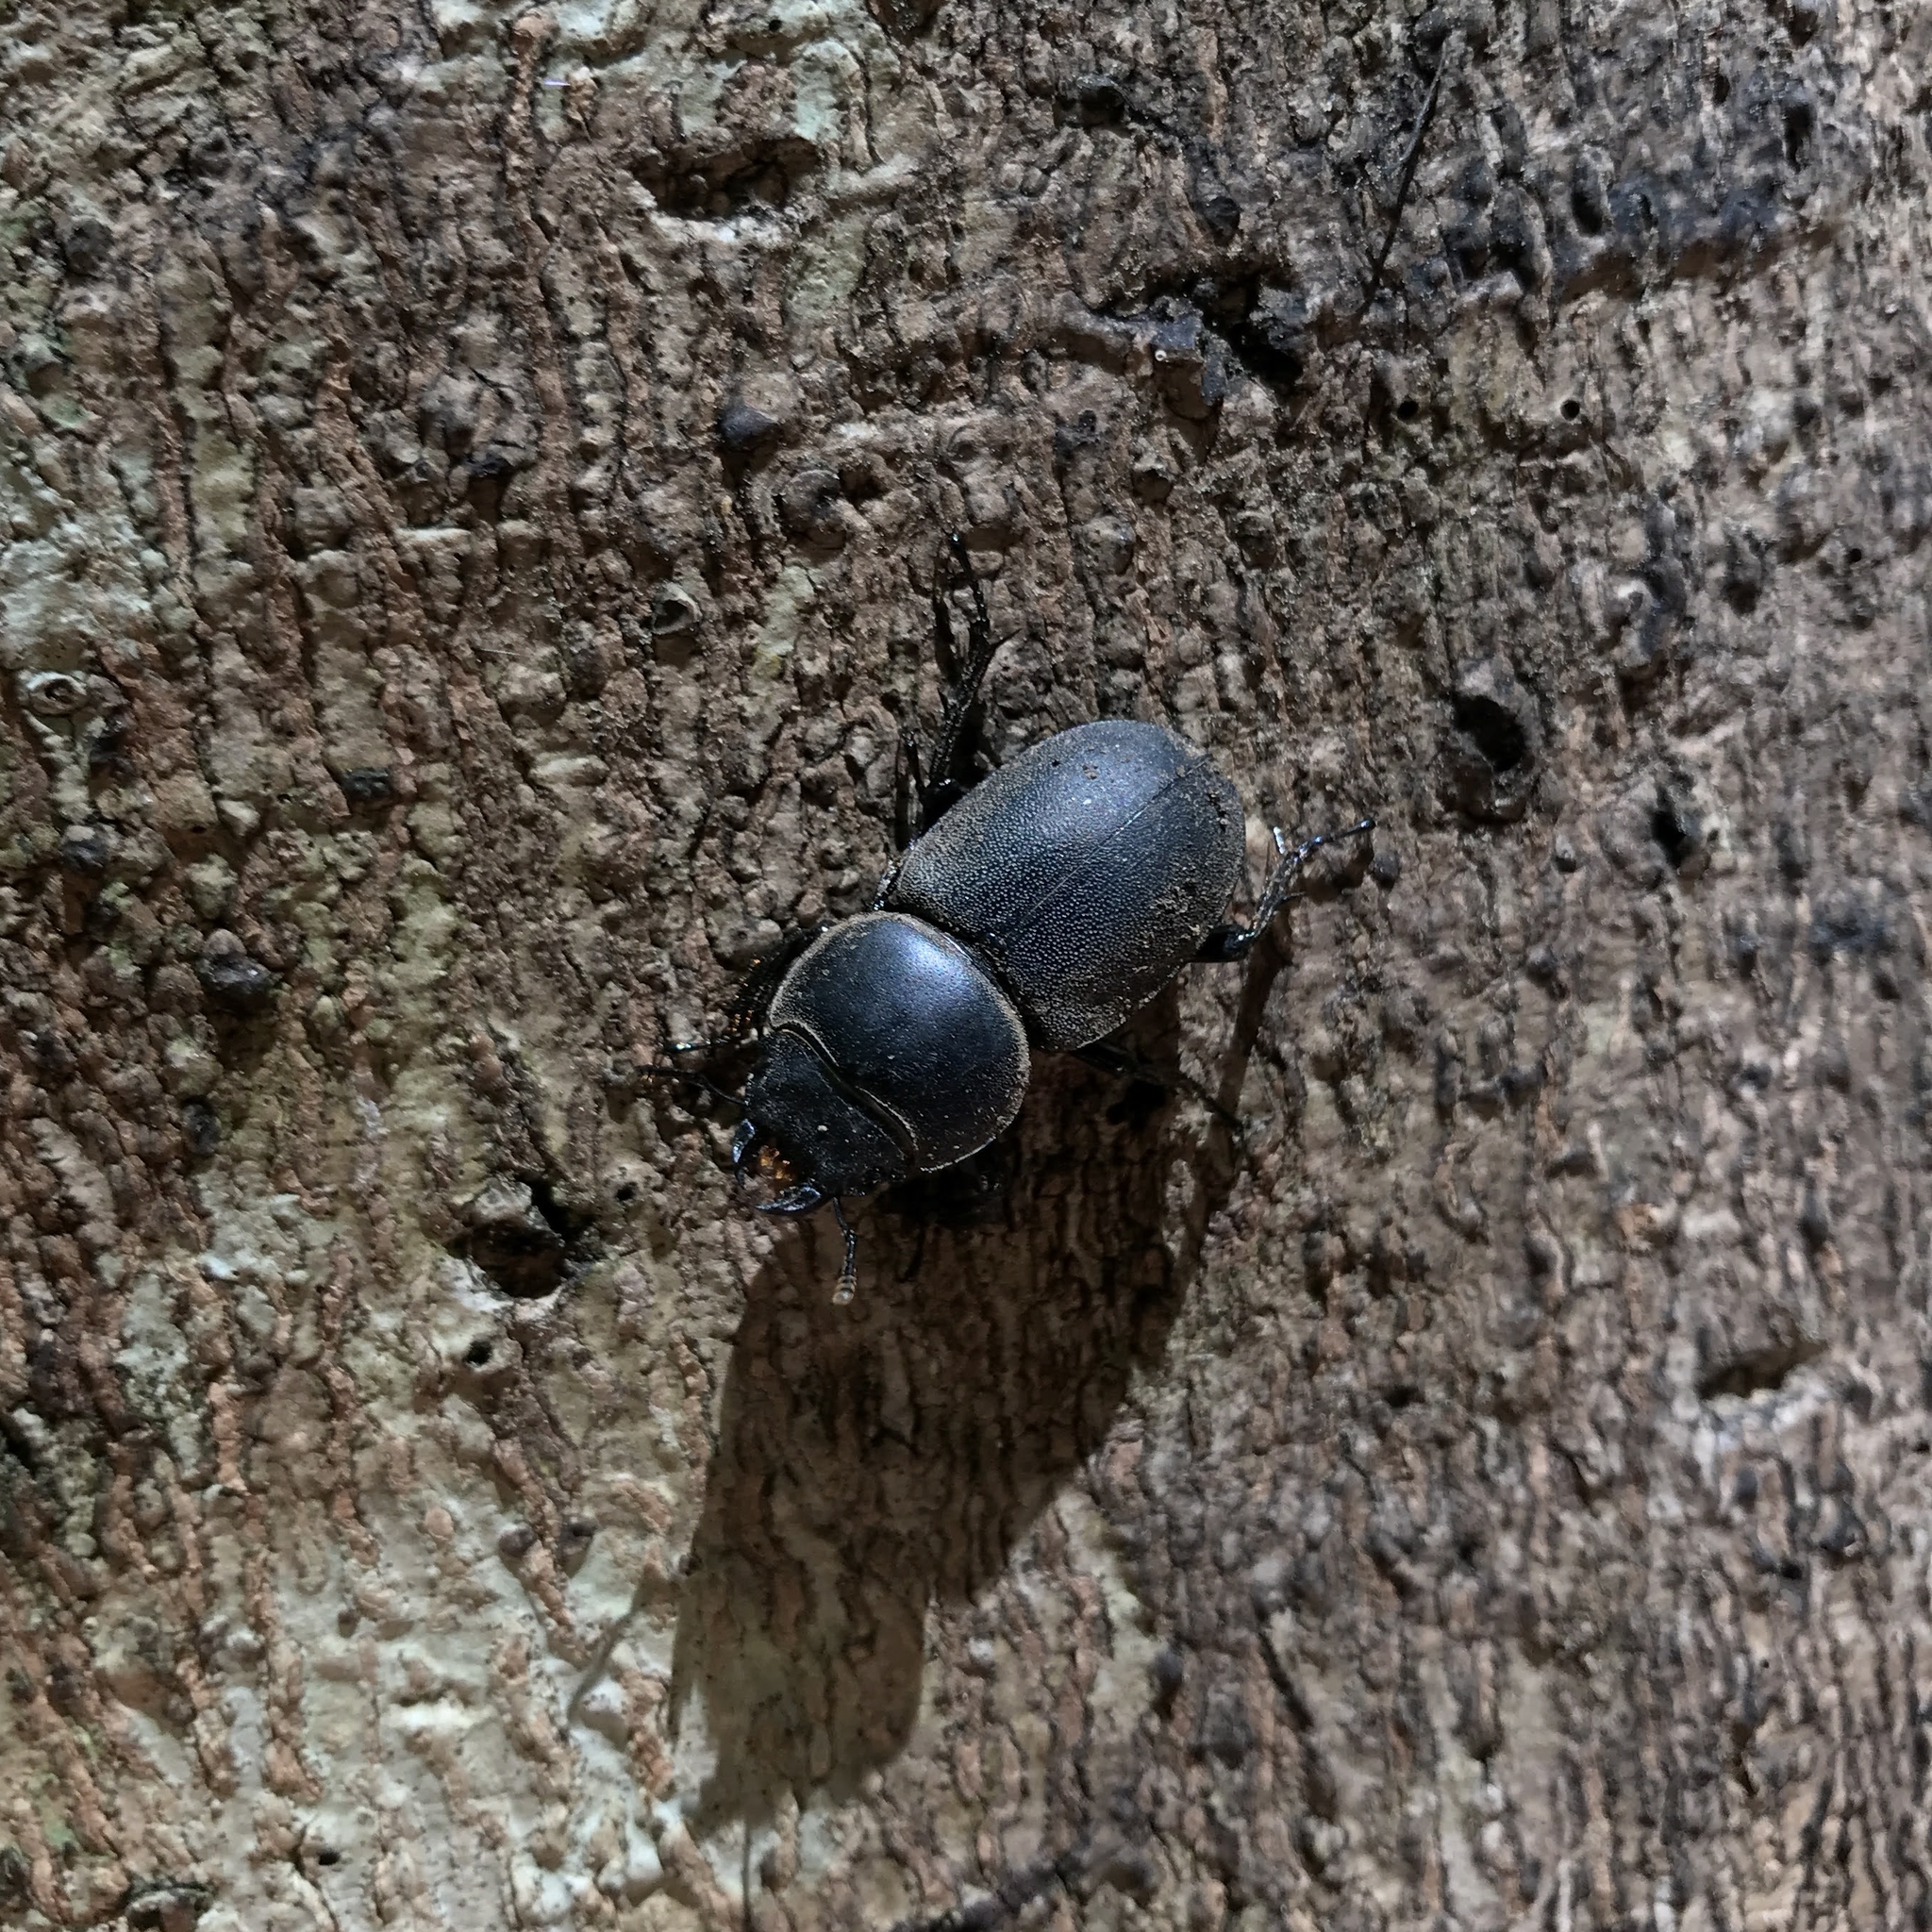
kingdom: Animalia
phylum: Arthropoda
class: Insecta
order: Coleoptera
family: Lucanidae
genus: Apterodorcus
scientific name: Apterodorcus bacchus
